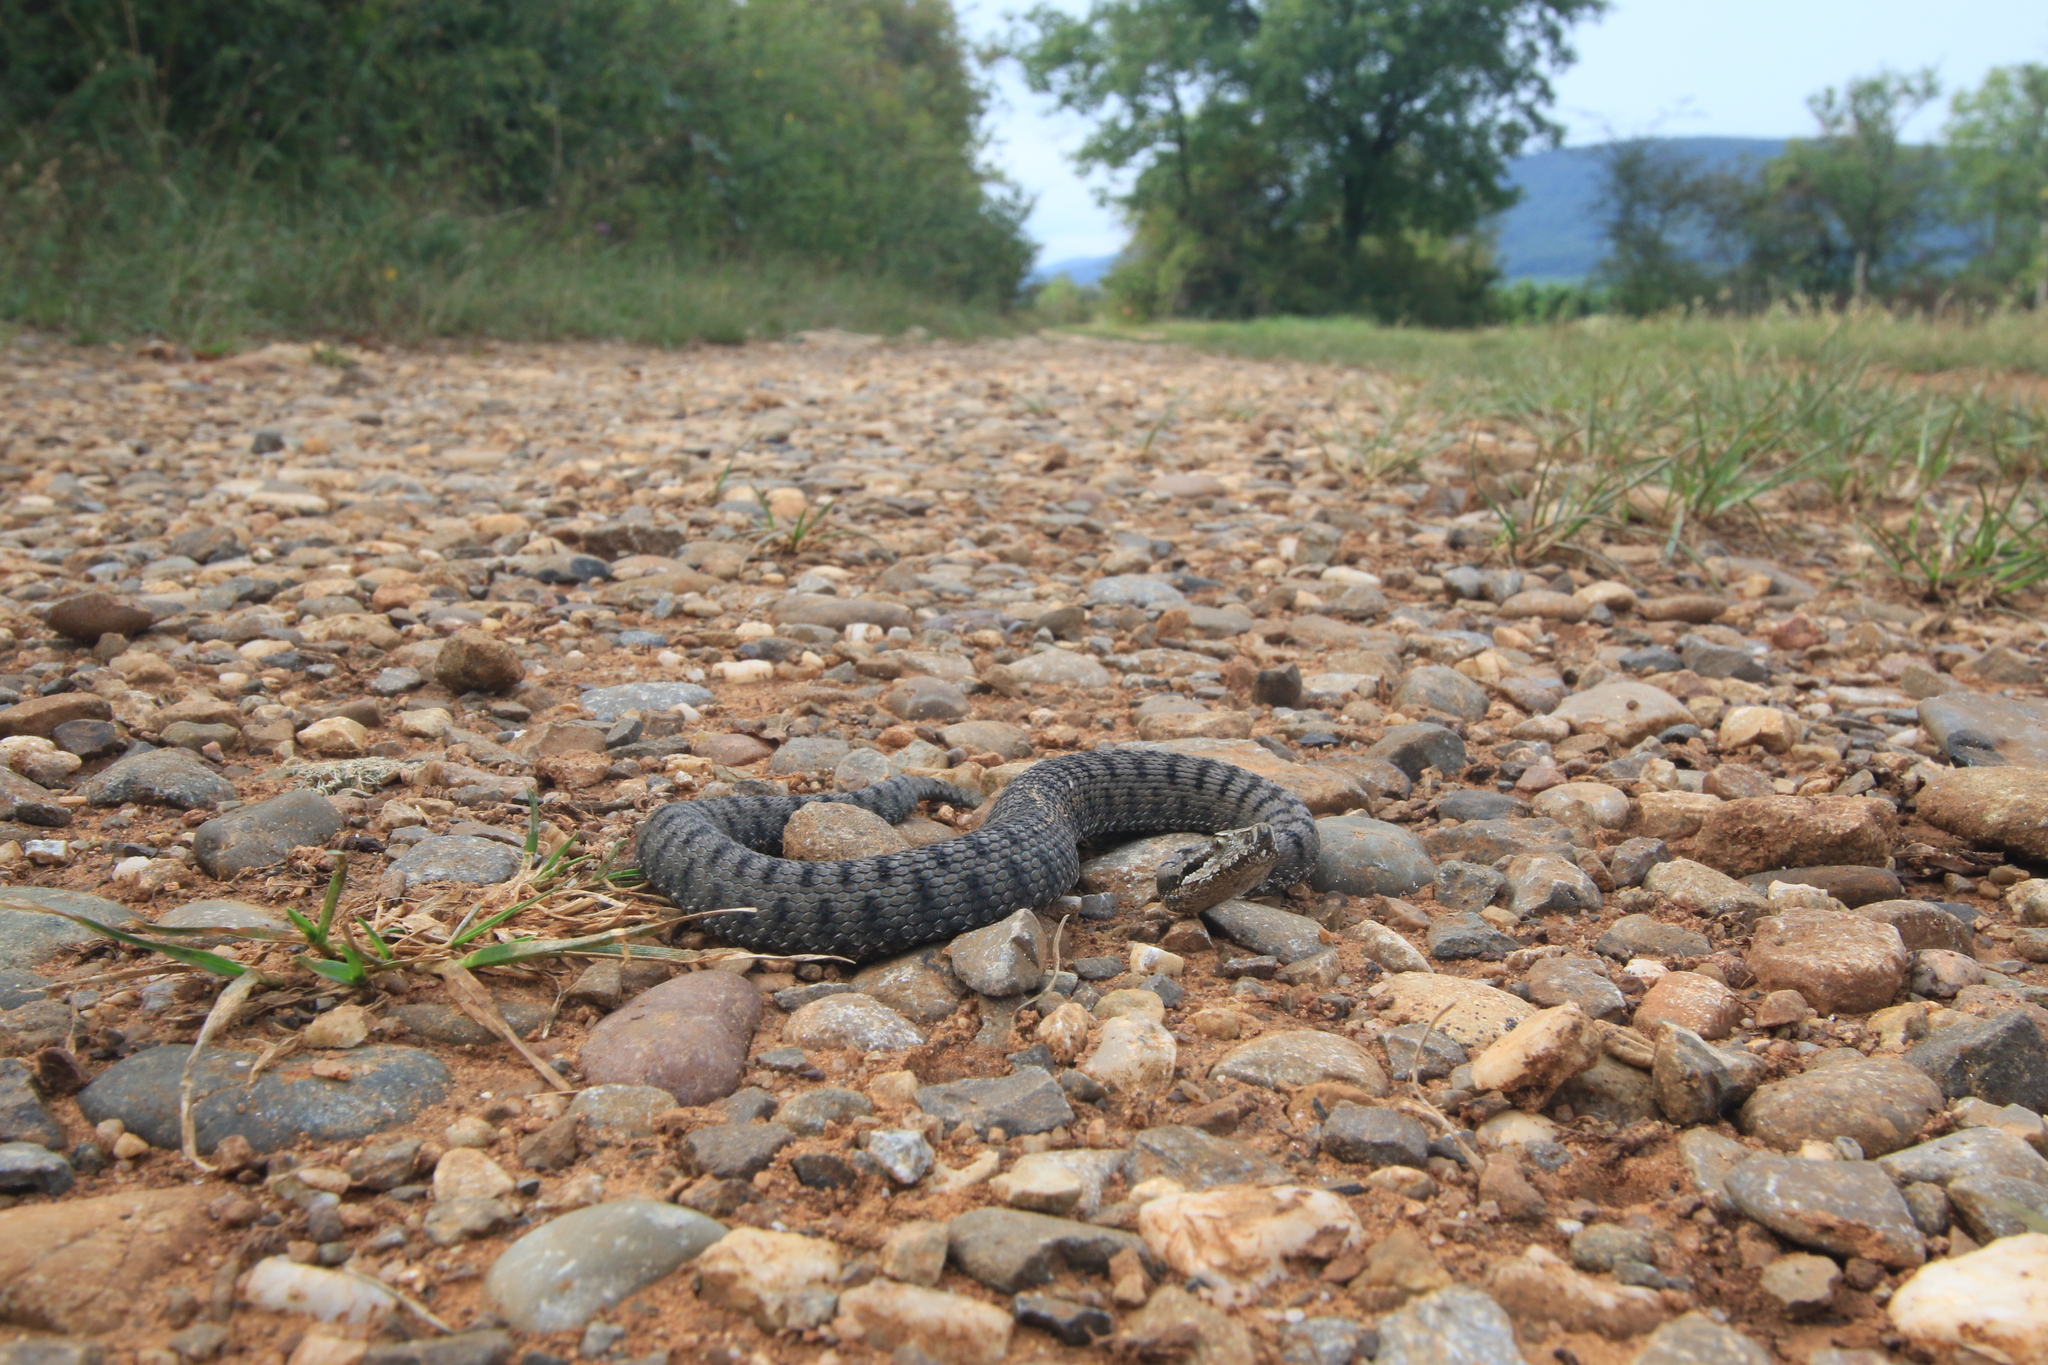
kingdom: Animalia
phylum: Chordata
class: Squamata
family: Viperidae
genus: Vipera
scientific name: Vipera aspis
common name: Asp viper
